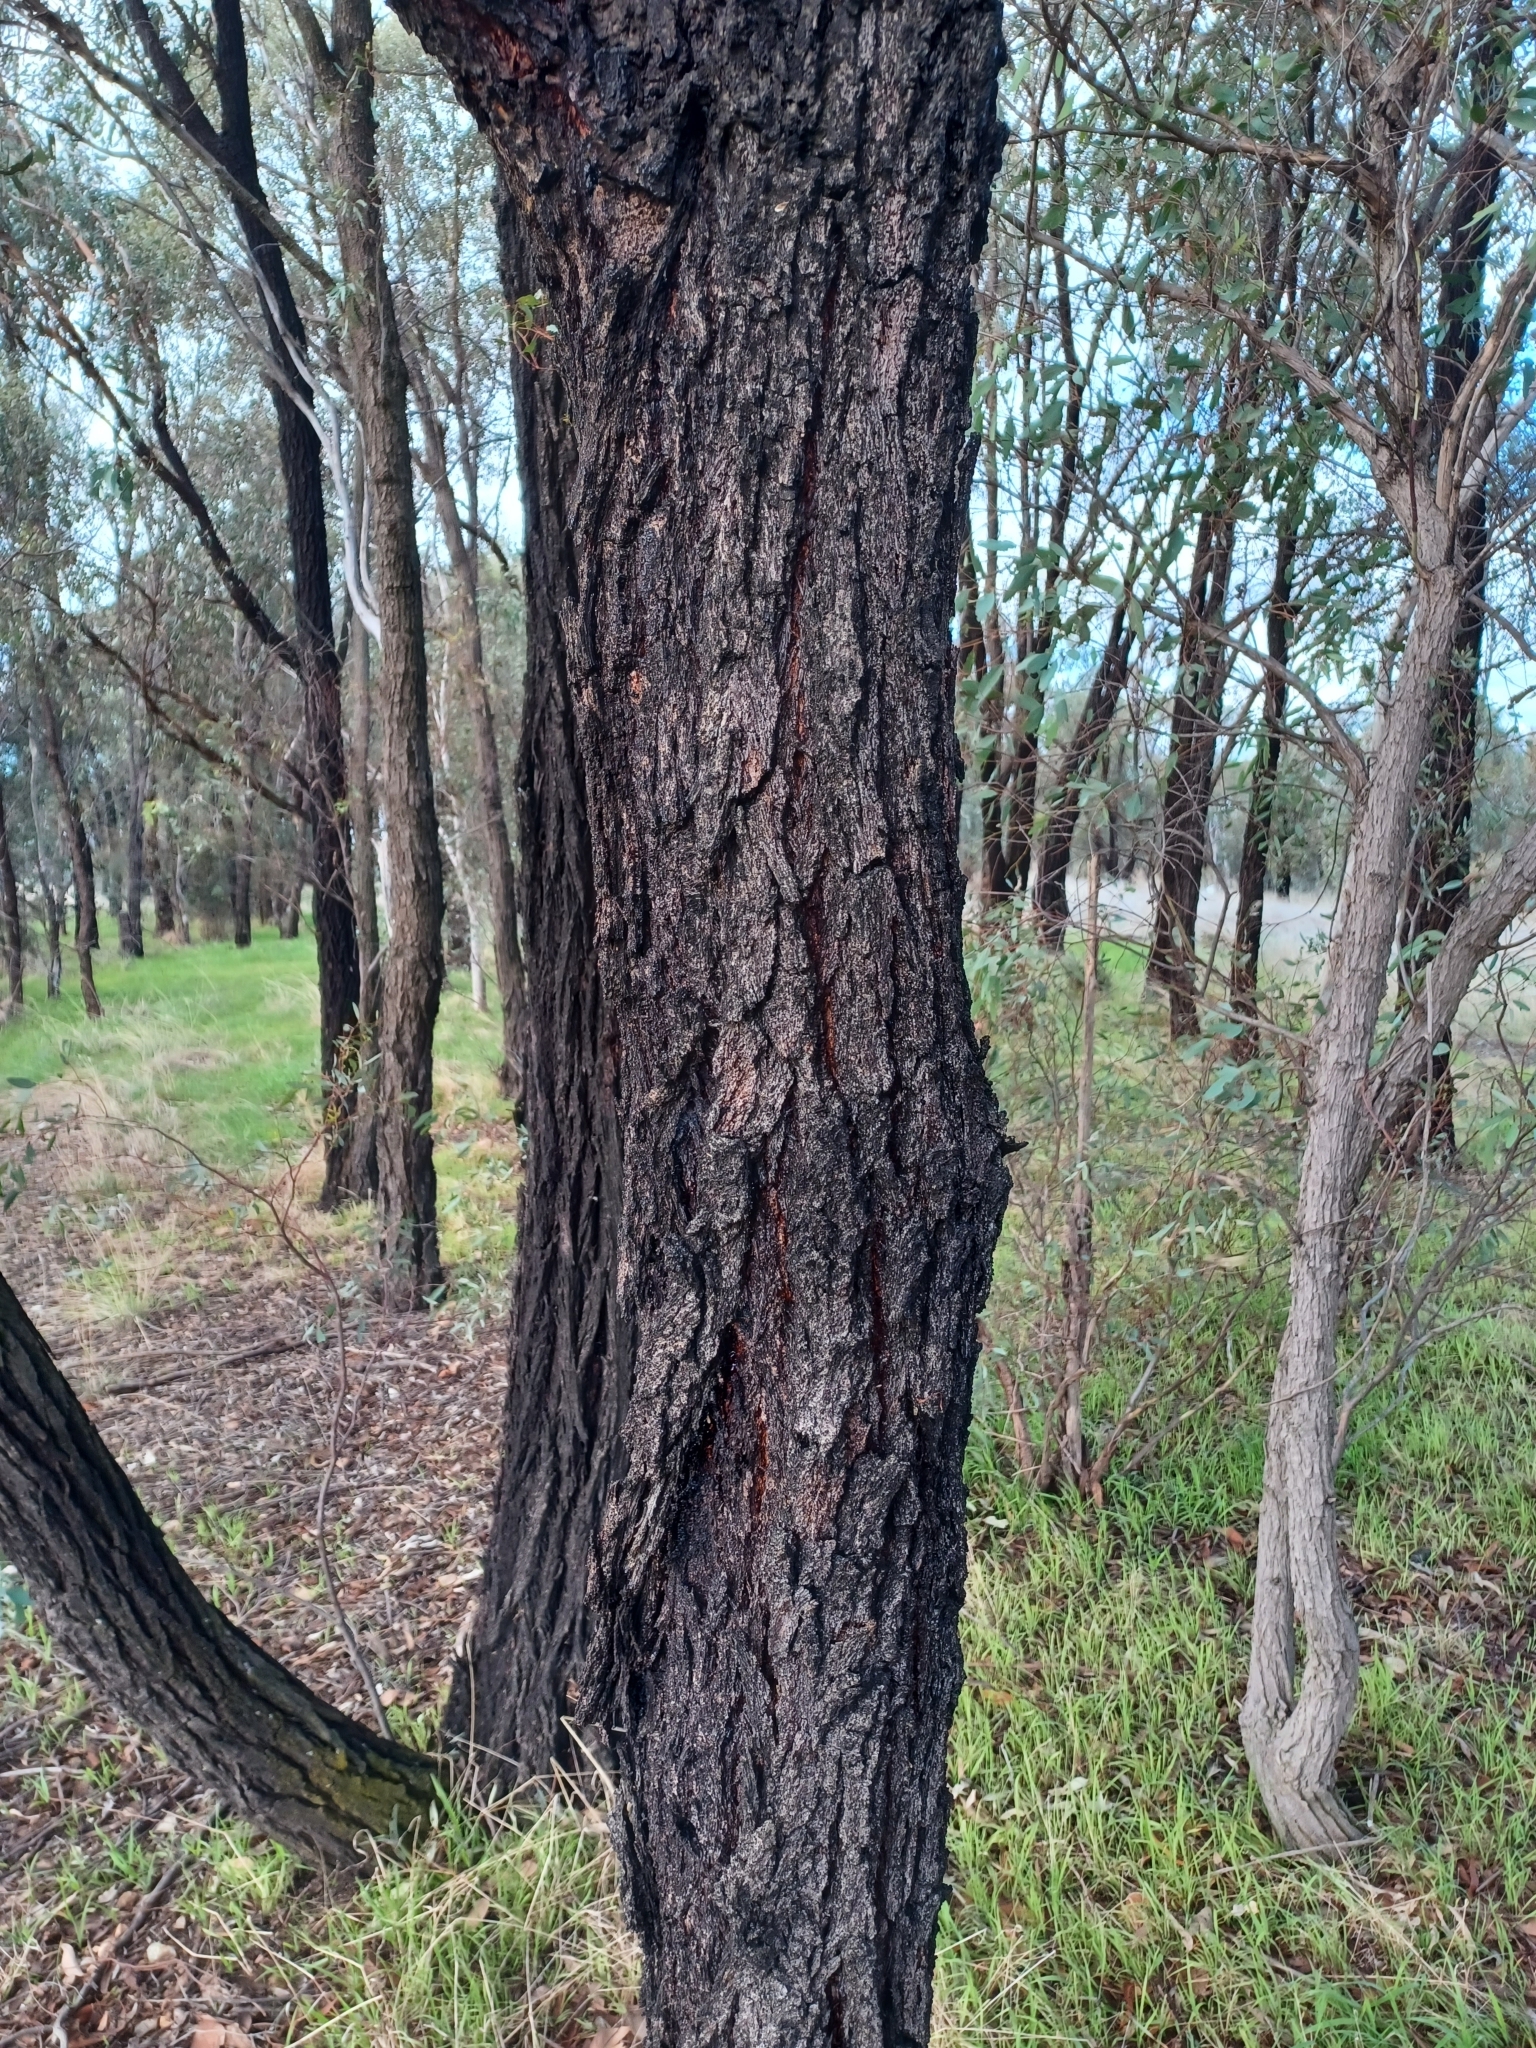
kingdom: Plantae
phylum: Tracheophyta
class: Magnoliopsida
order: Myrtales
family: Myrtaceae
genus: Eucalyptus
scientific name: Eucalyptus sideroxylon
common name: Red ironbark
